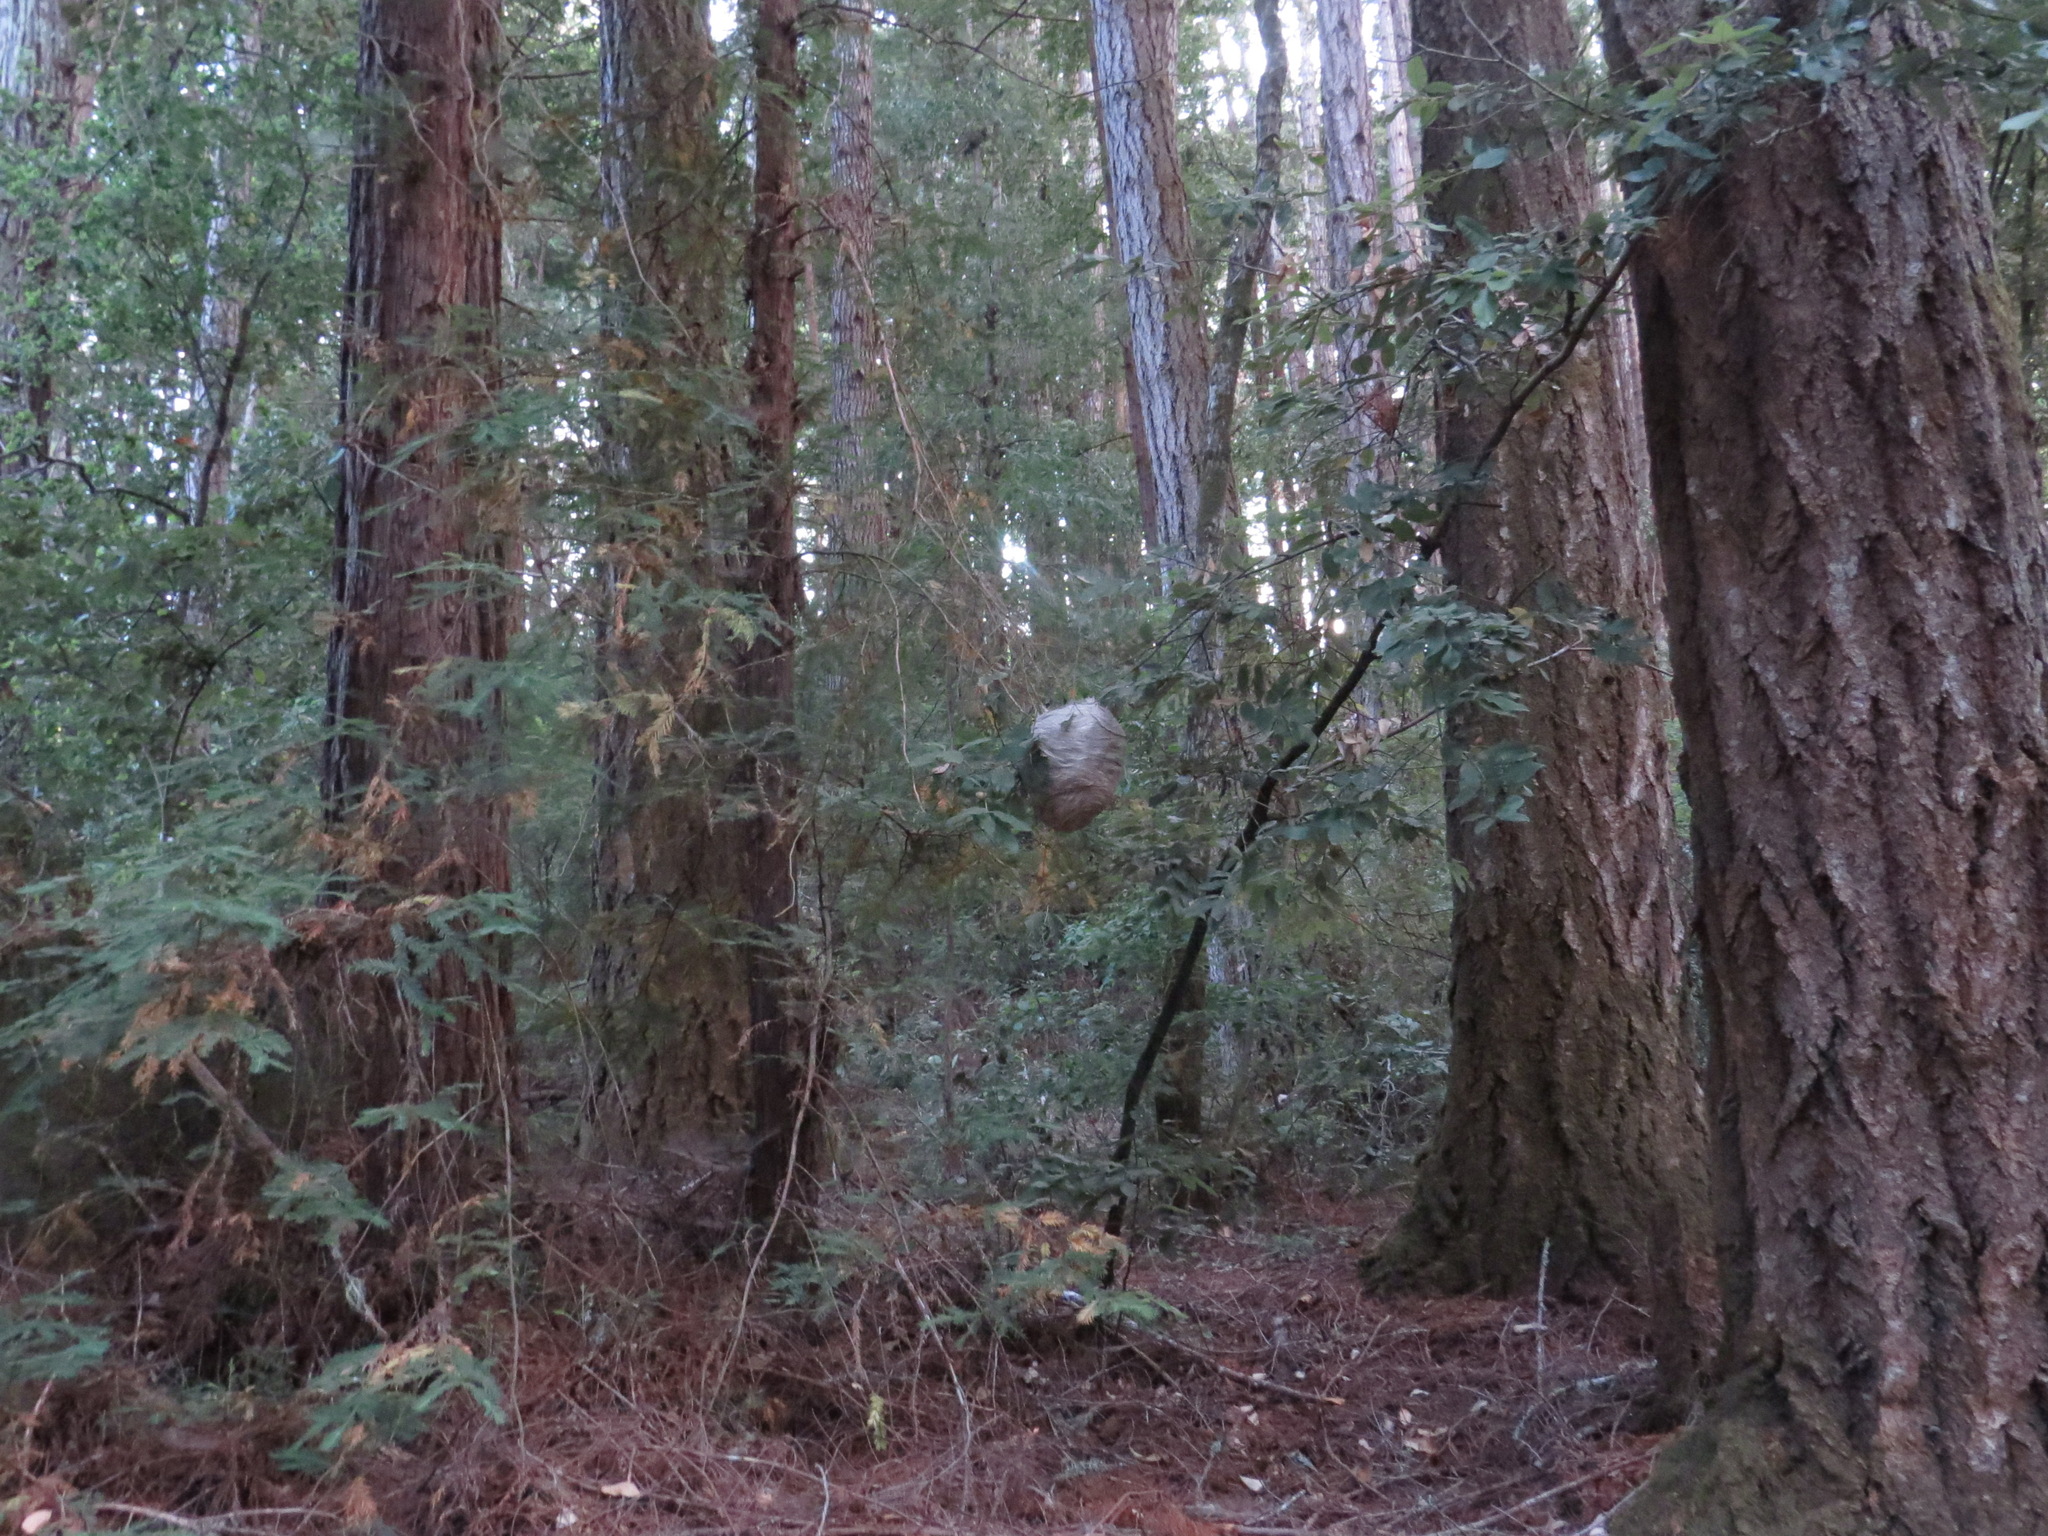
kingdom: Animalia
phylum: Arthropoda
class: Insecta
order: Hymenoptera
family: Vespidae
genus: Dolichovespula
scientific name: Dolichovespula
